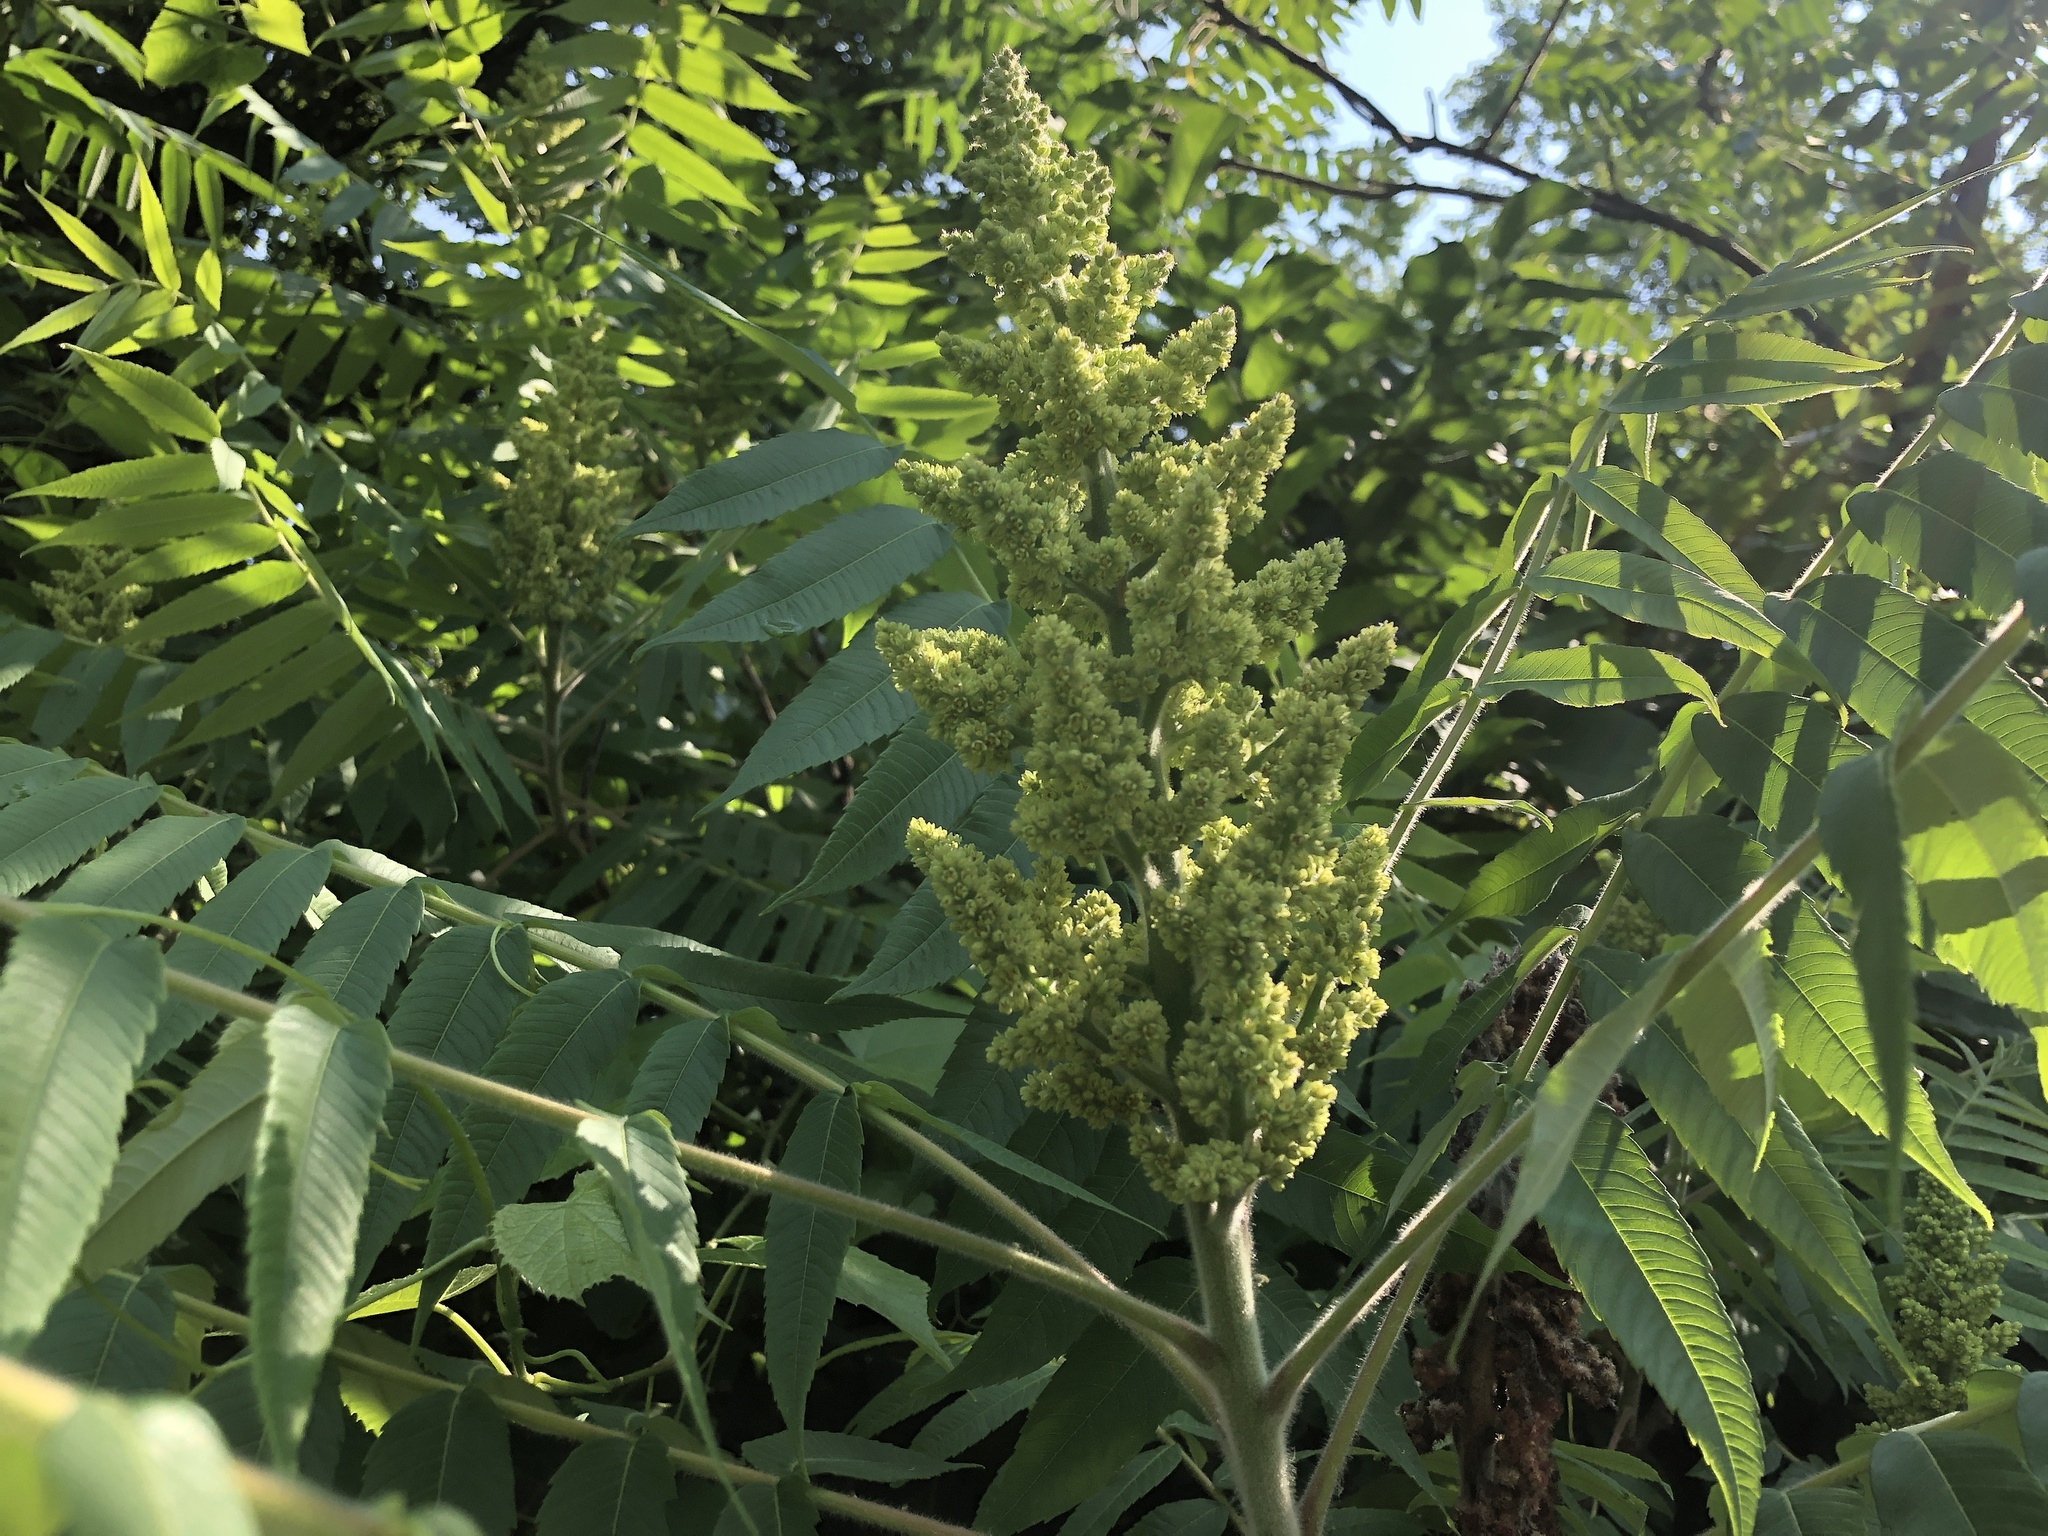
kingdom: Plantae
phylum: Tracheophyta
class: Magnoliopsida
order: Sapindales
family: Anacardiaceae
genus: Rhus
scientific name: Rhus typhina
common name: Staghorn sumac
